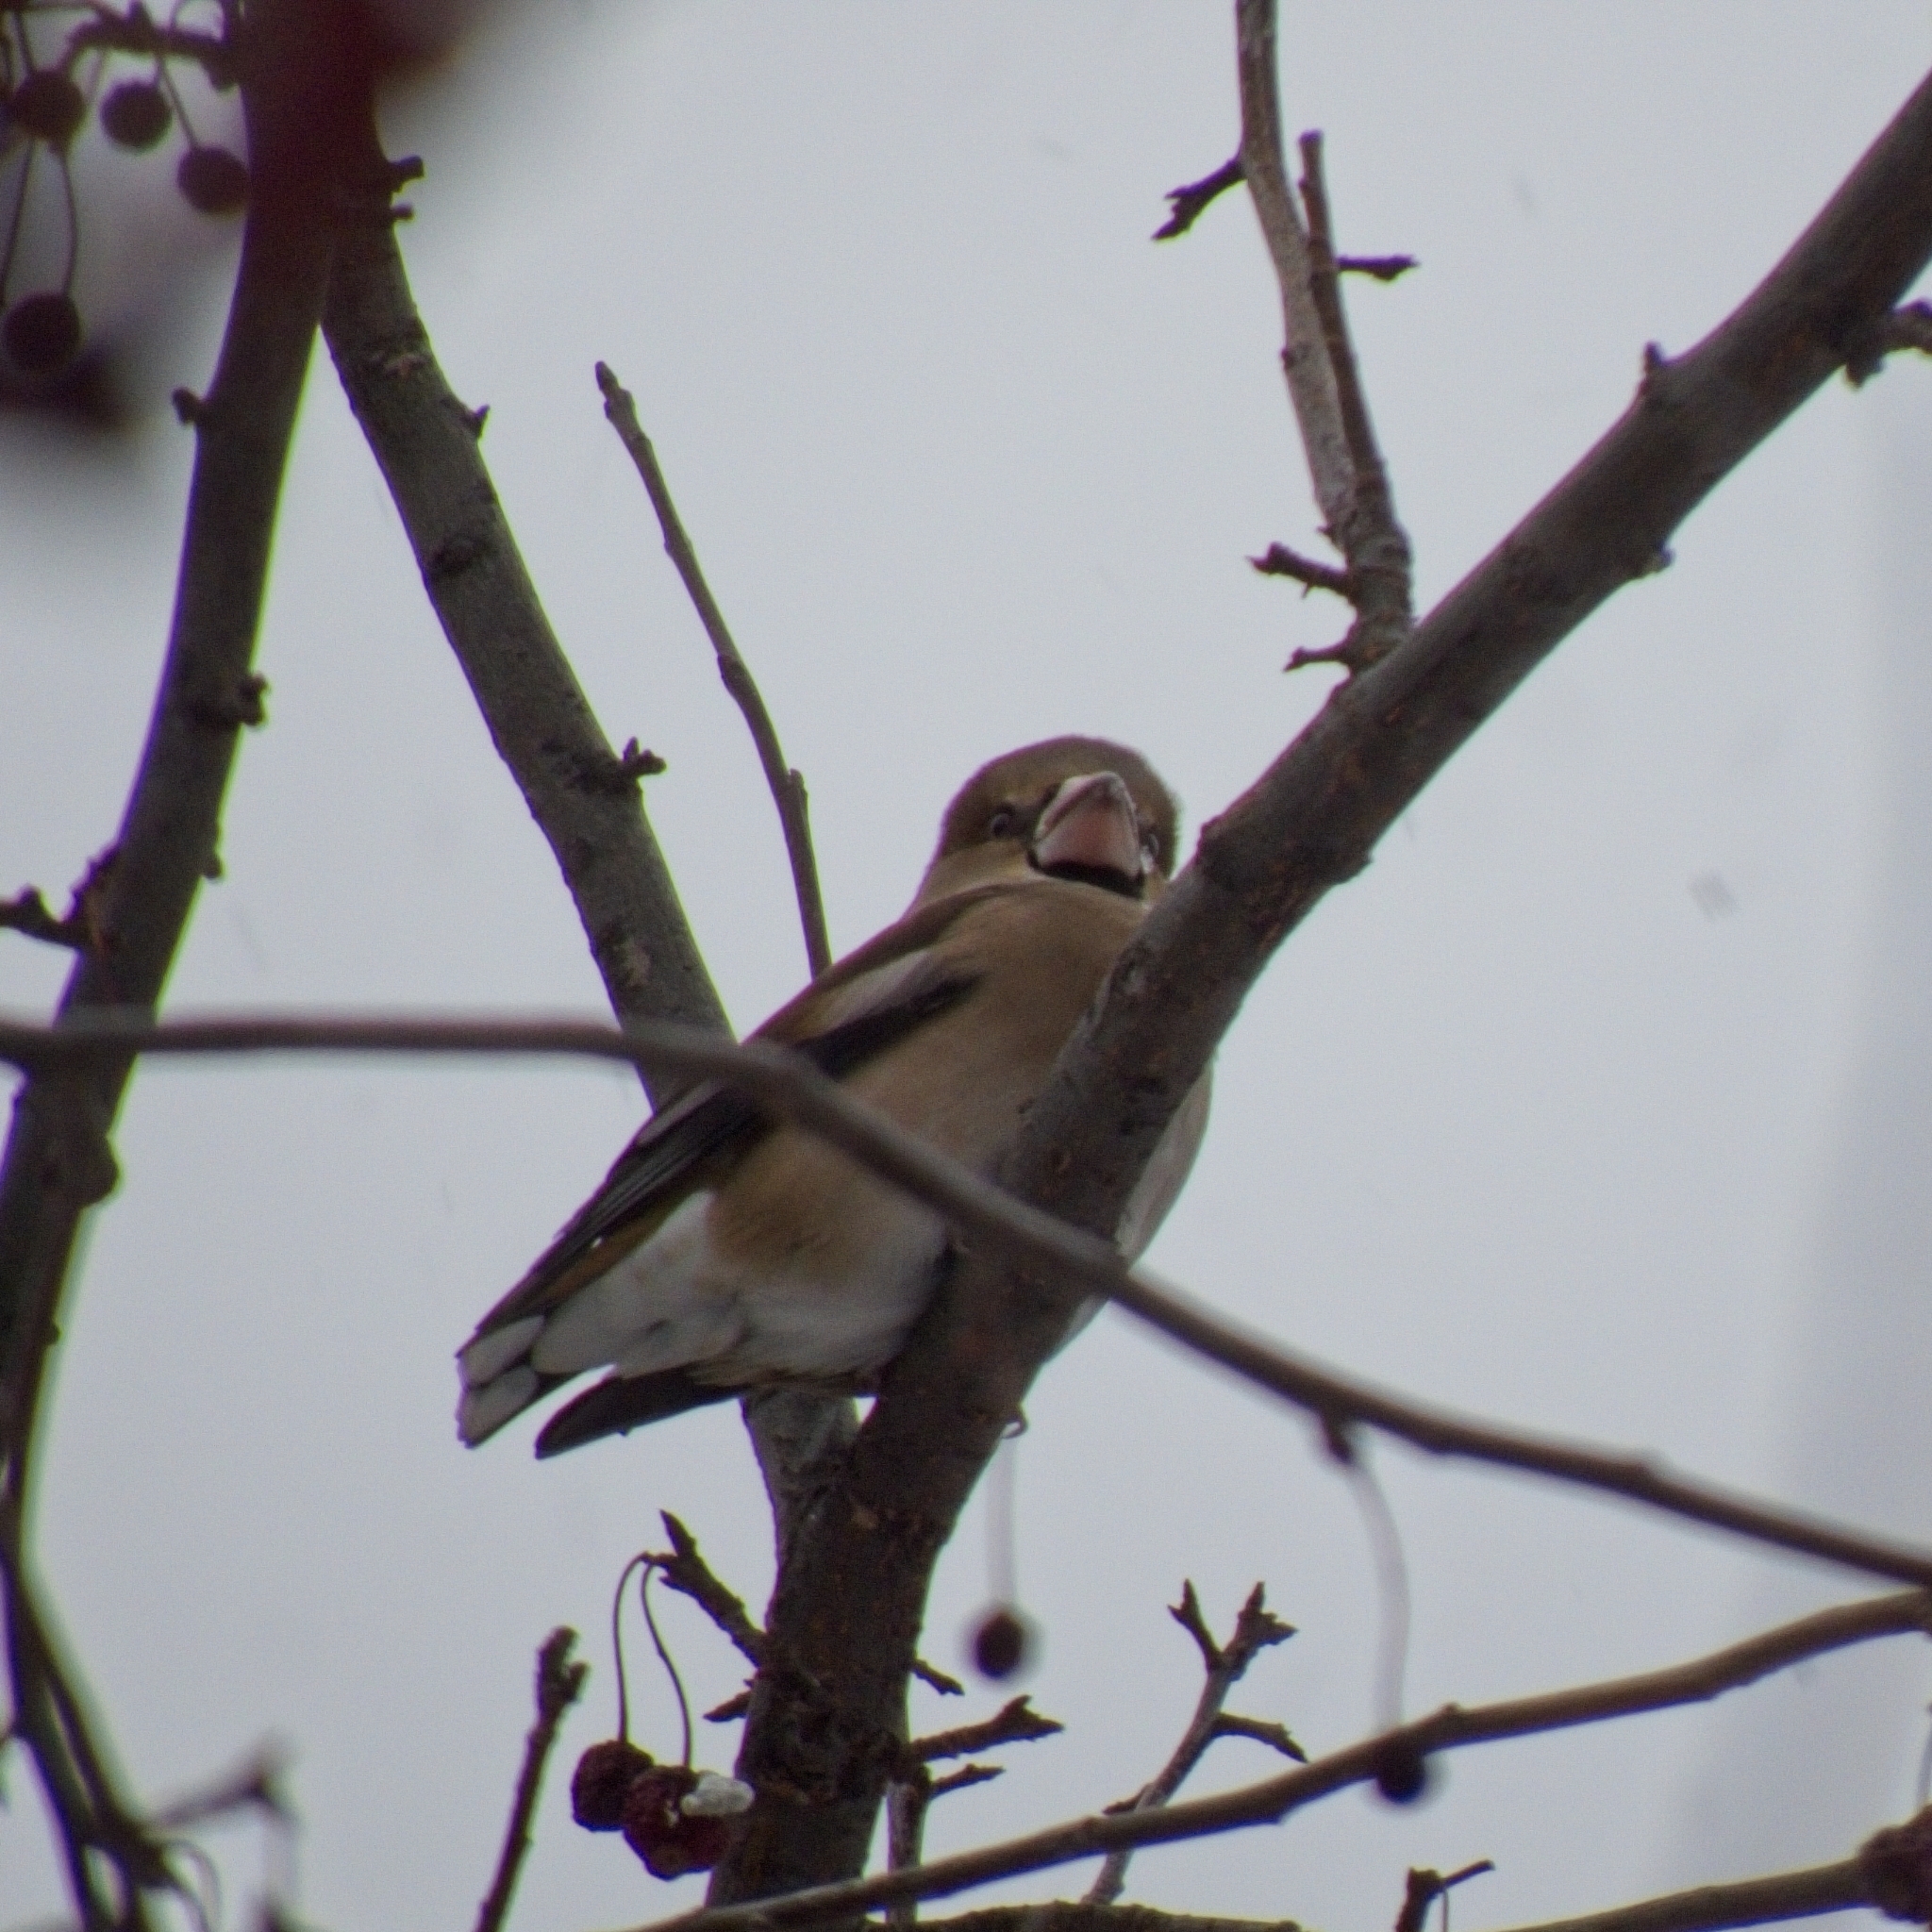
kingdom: Animalia
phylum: Chordata
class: Aves
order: Passeriformes
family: Fringillidae
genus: Coccothraustes
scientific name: Coccothraustes coccothraustes
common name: Hawfinch
